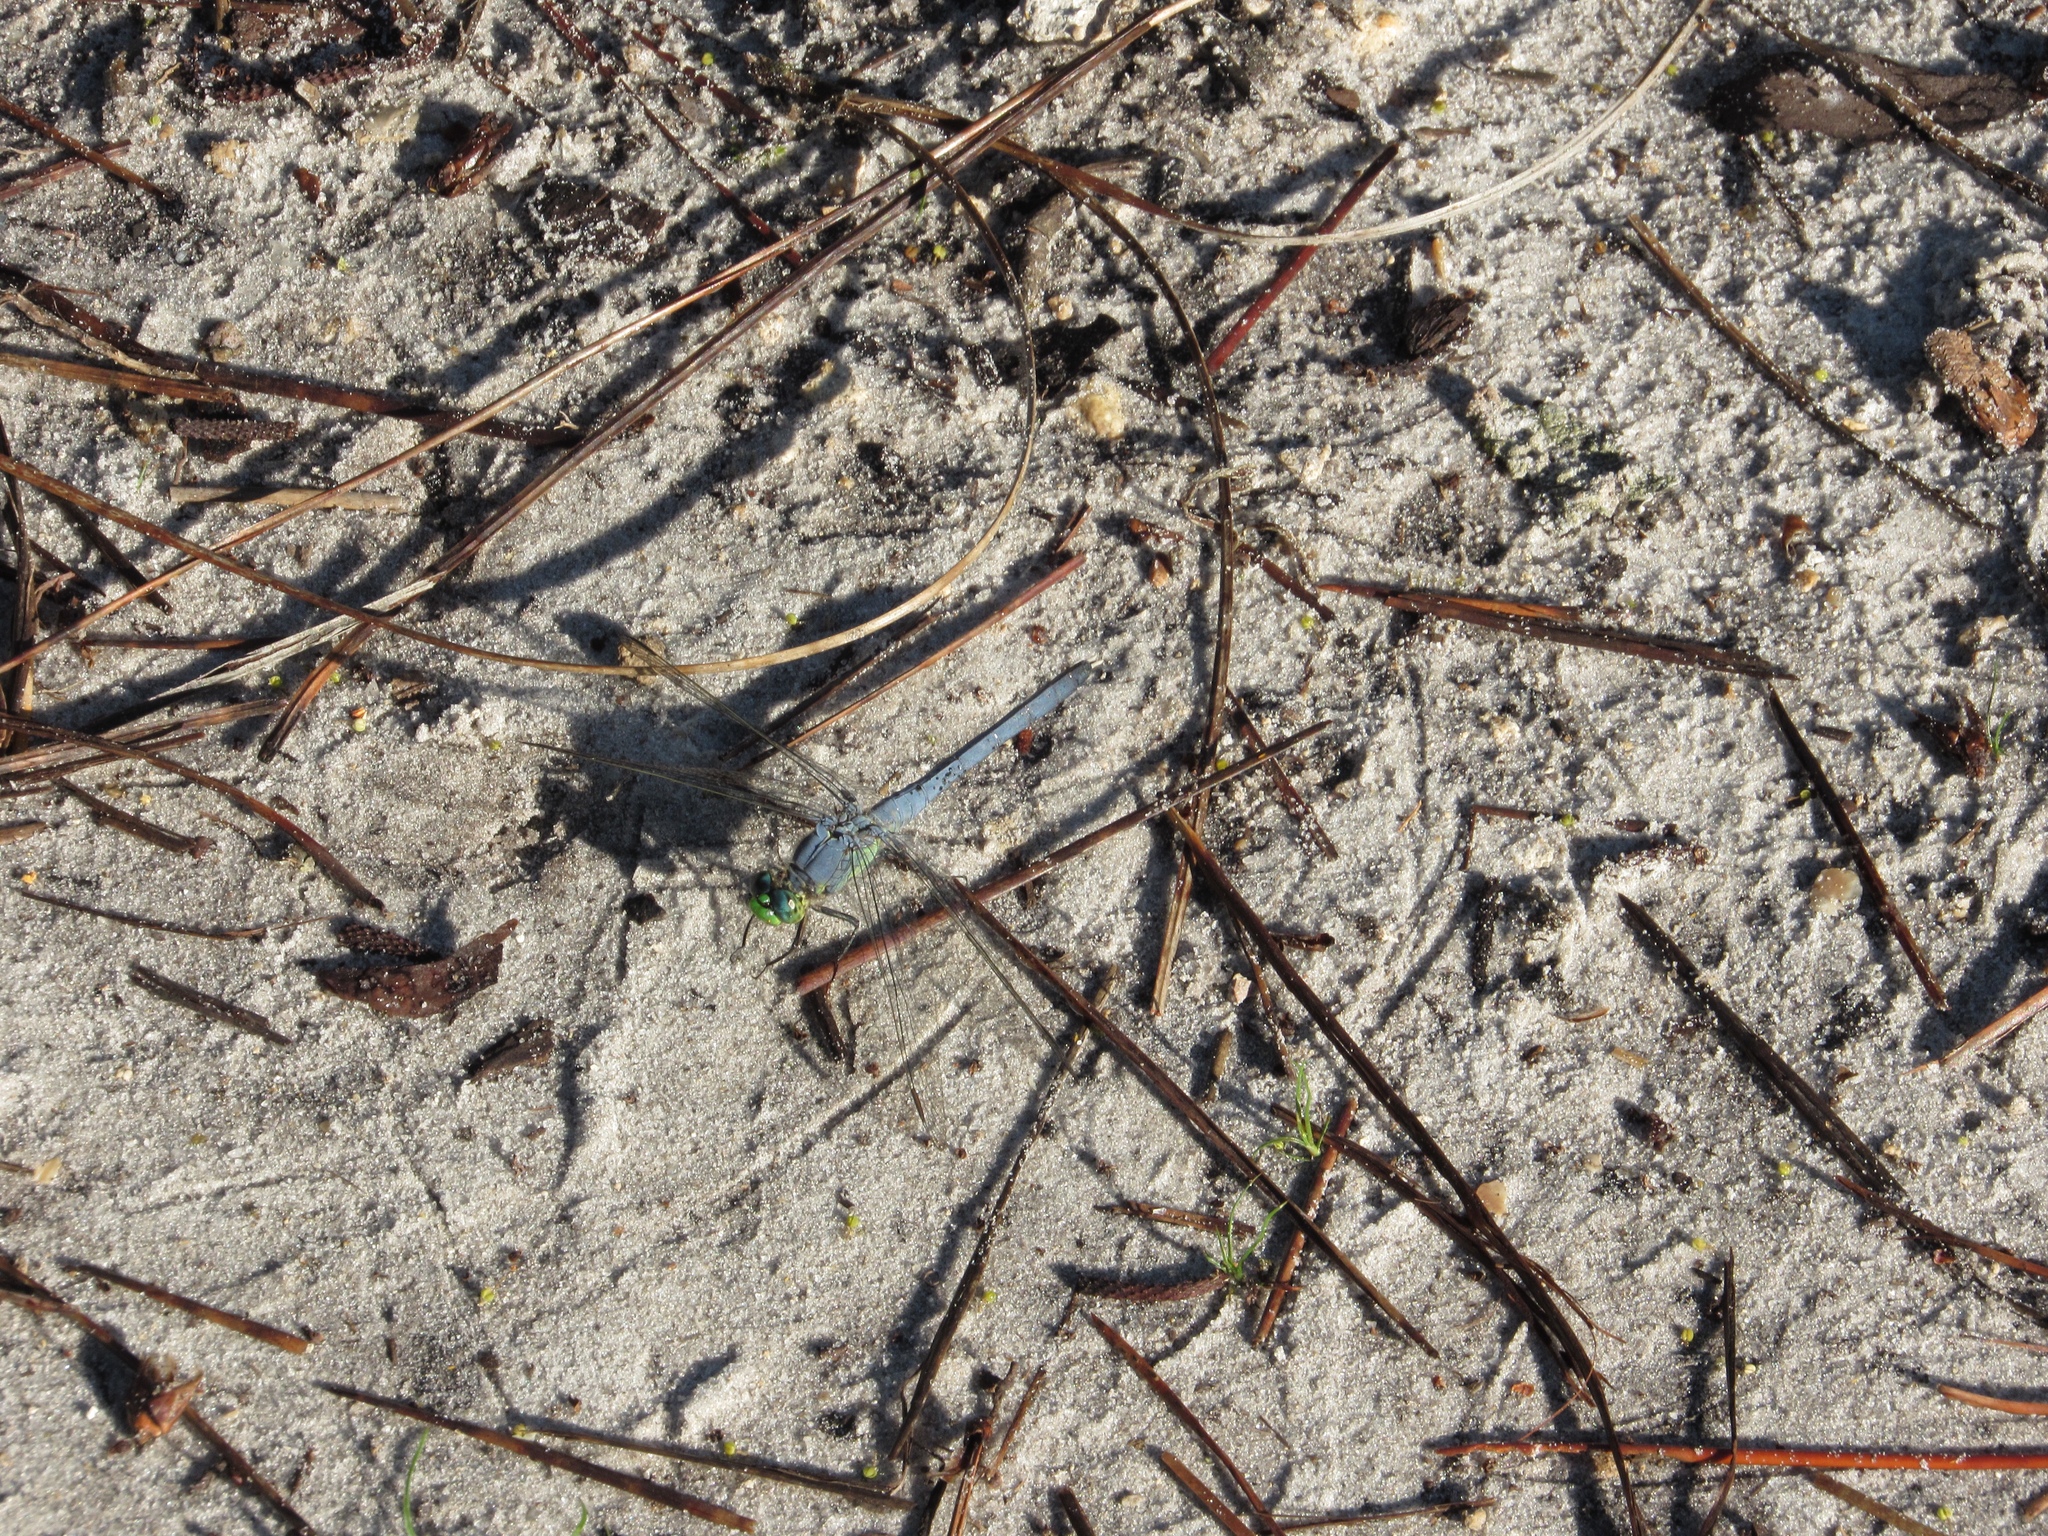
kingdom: Animalia
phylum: Arthropoda
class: Insecta
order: Odonata
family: Libellulidae
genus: Erythemis
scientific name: Erythemis simplicicollis
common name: Eastern pondhawk
